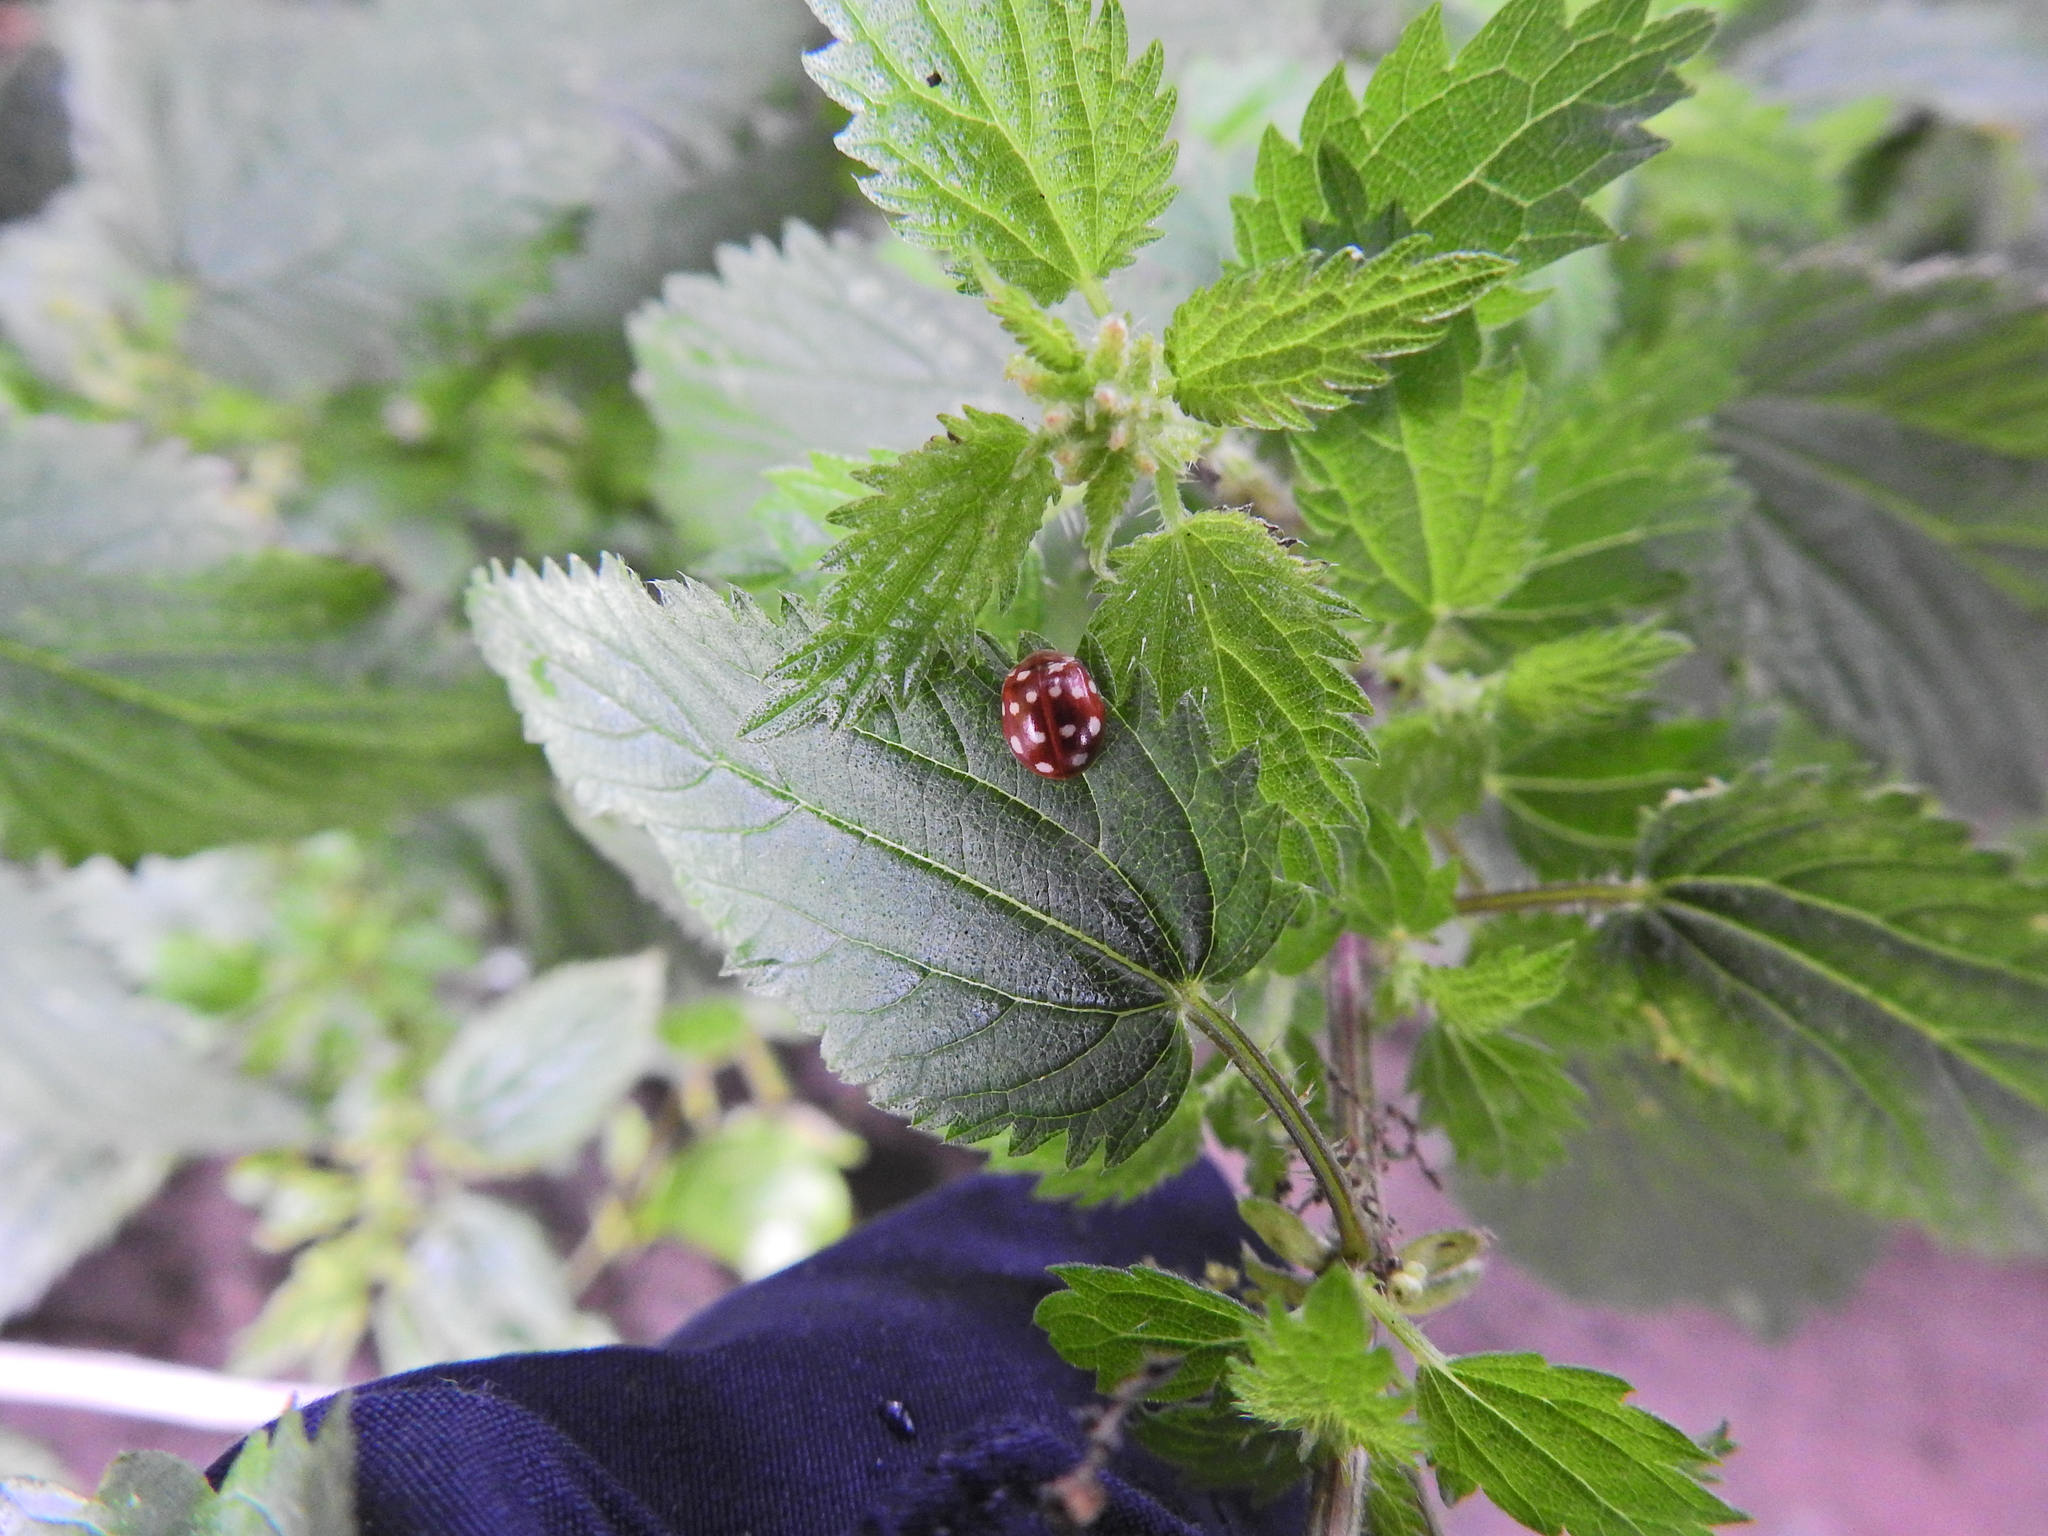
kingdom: Animalia
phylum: Arthropoda
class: Insecta
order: Coleoptera
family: Coccinellidae
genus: Calvia
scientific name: Calvia quatuordecimguttata
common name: Cream-spot ladybird
